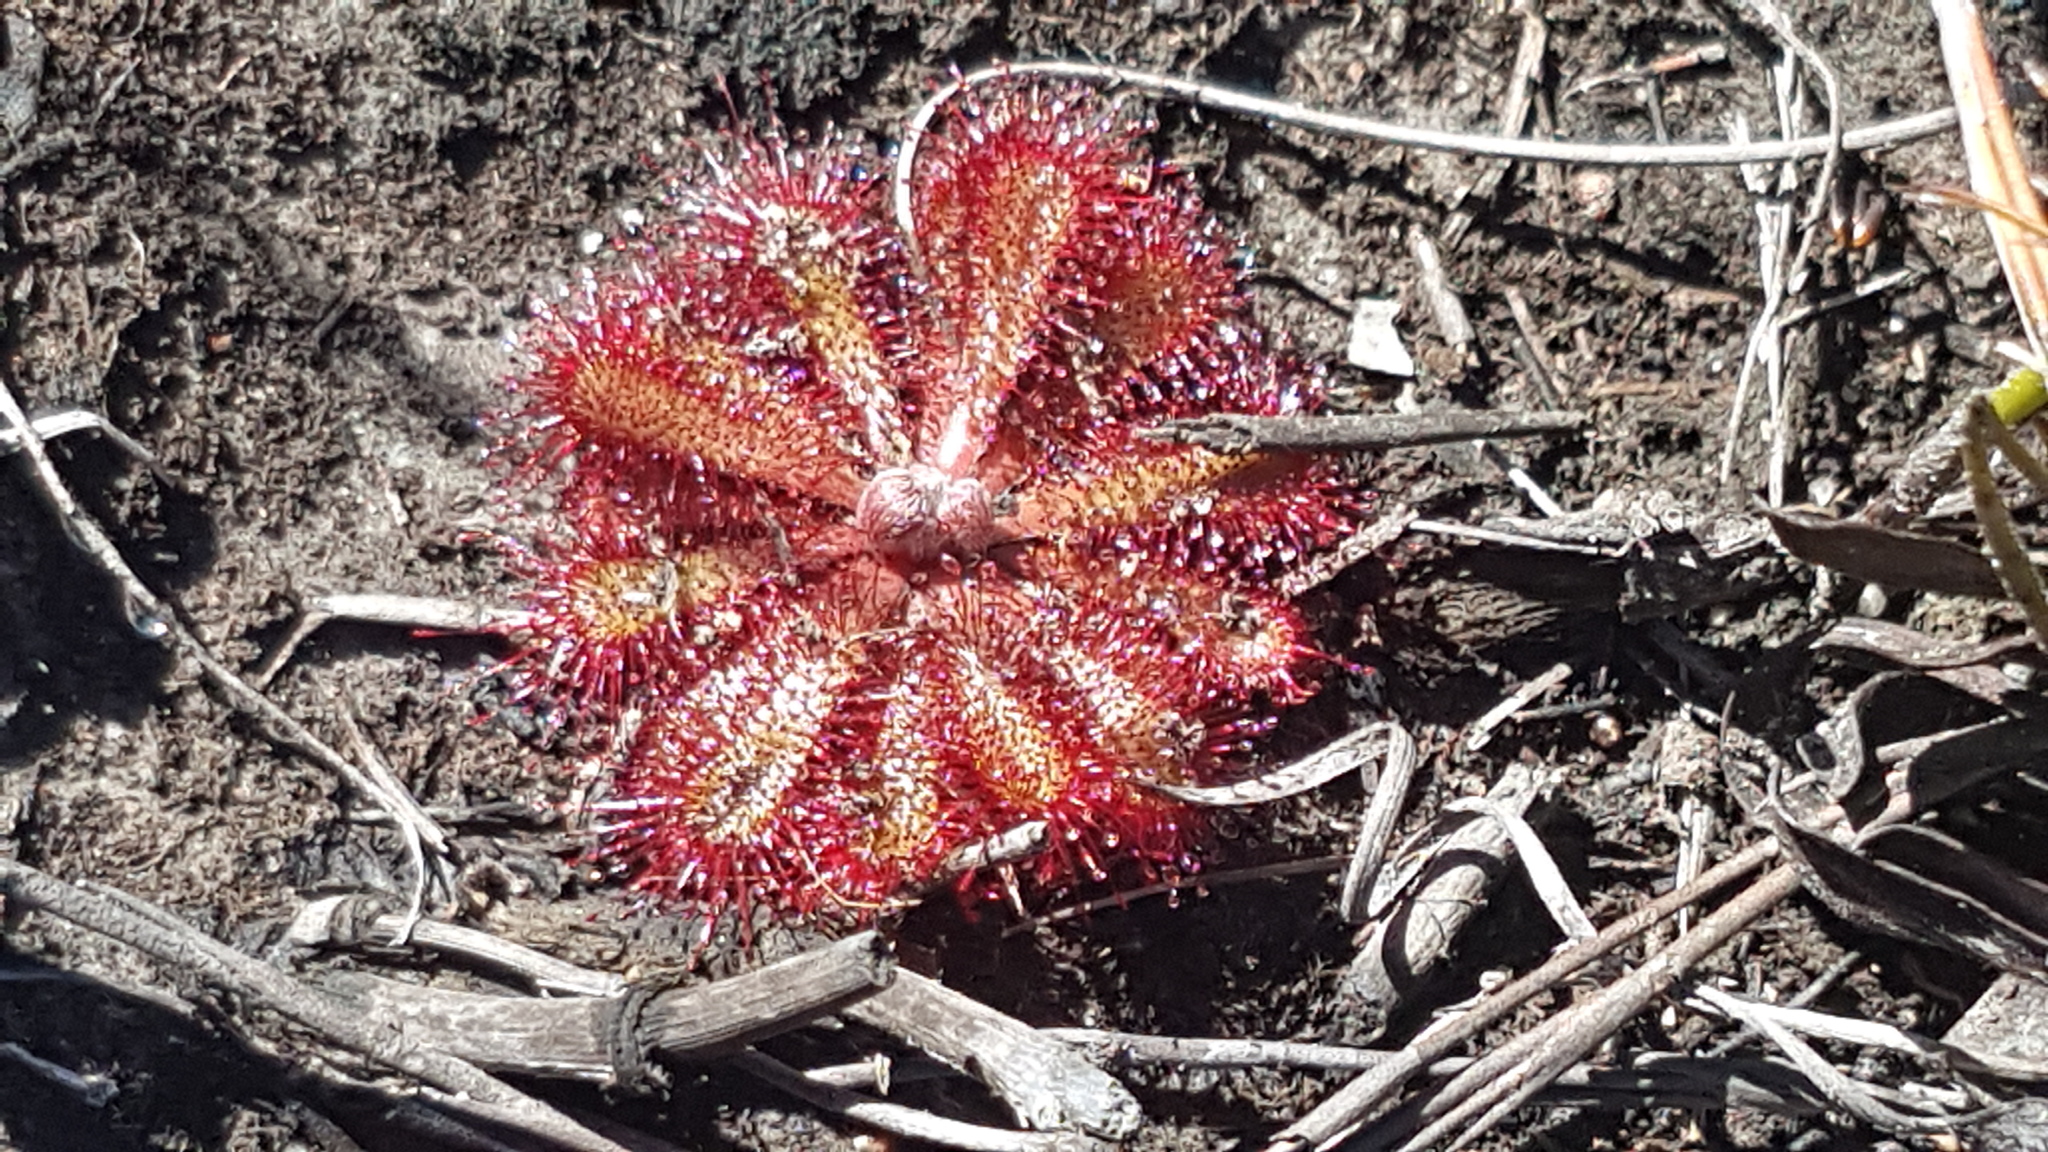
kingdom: Plantae
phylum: Tracheophyta
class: Magnoliopsida
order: Caryophyllales
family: Droseraceae
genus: Drosera
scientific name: Drosera aliciae
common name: Alice sundew
